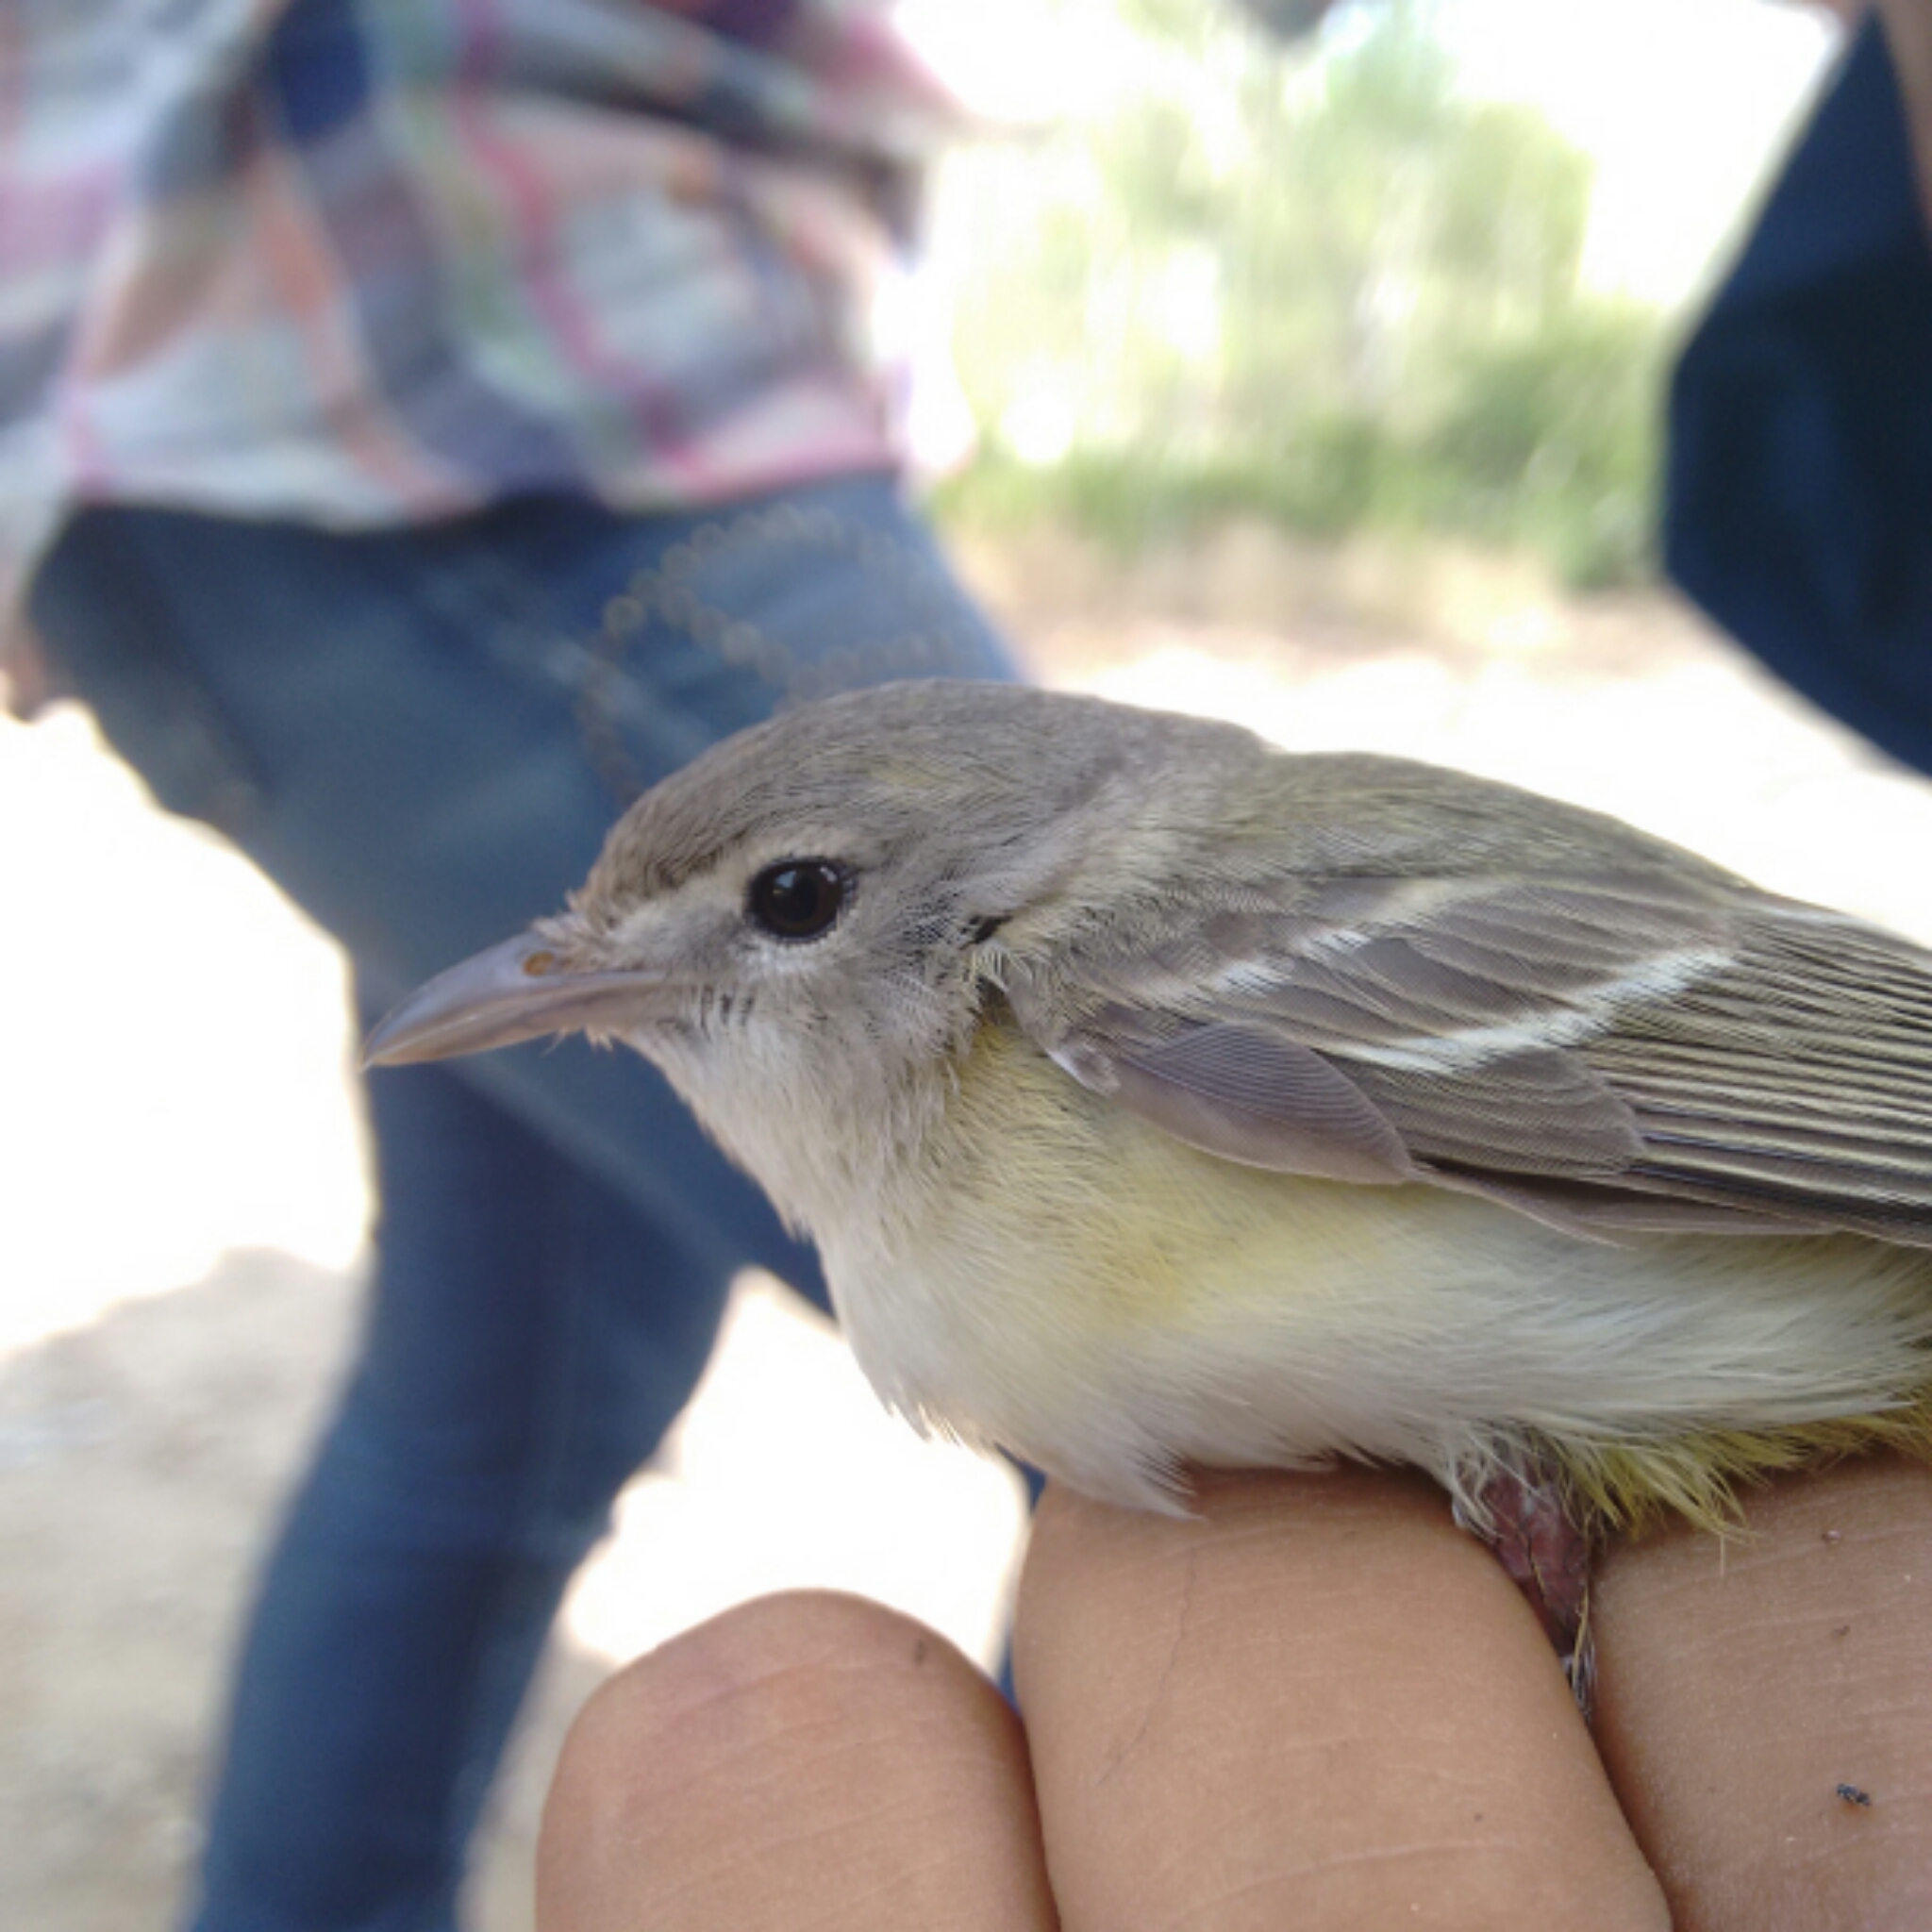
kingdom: Animalia
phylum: Chordata
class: Aves
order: Passeriformes
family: Vireonidae
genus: Vireo
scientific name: Vireo bellii
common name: Bell's vireo
